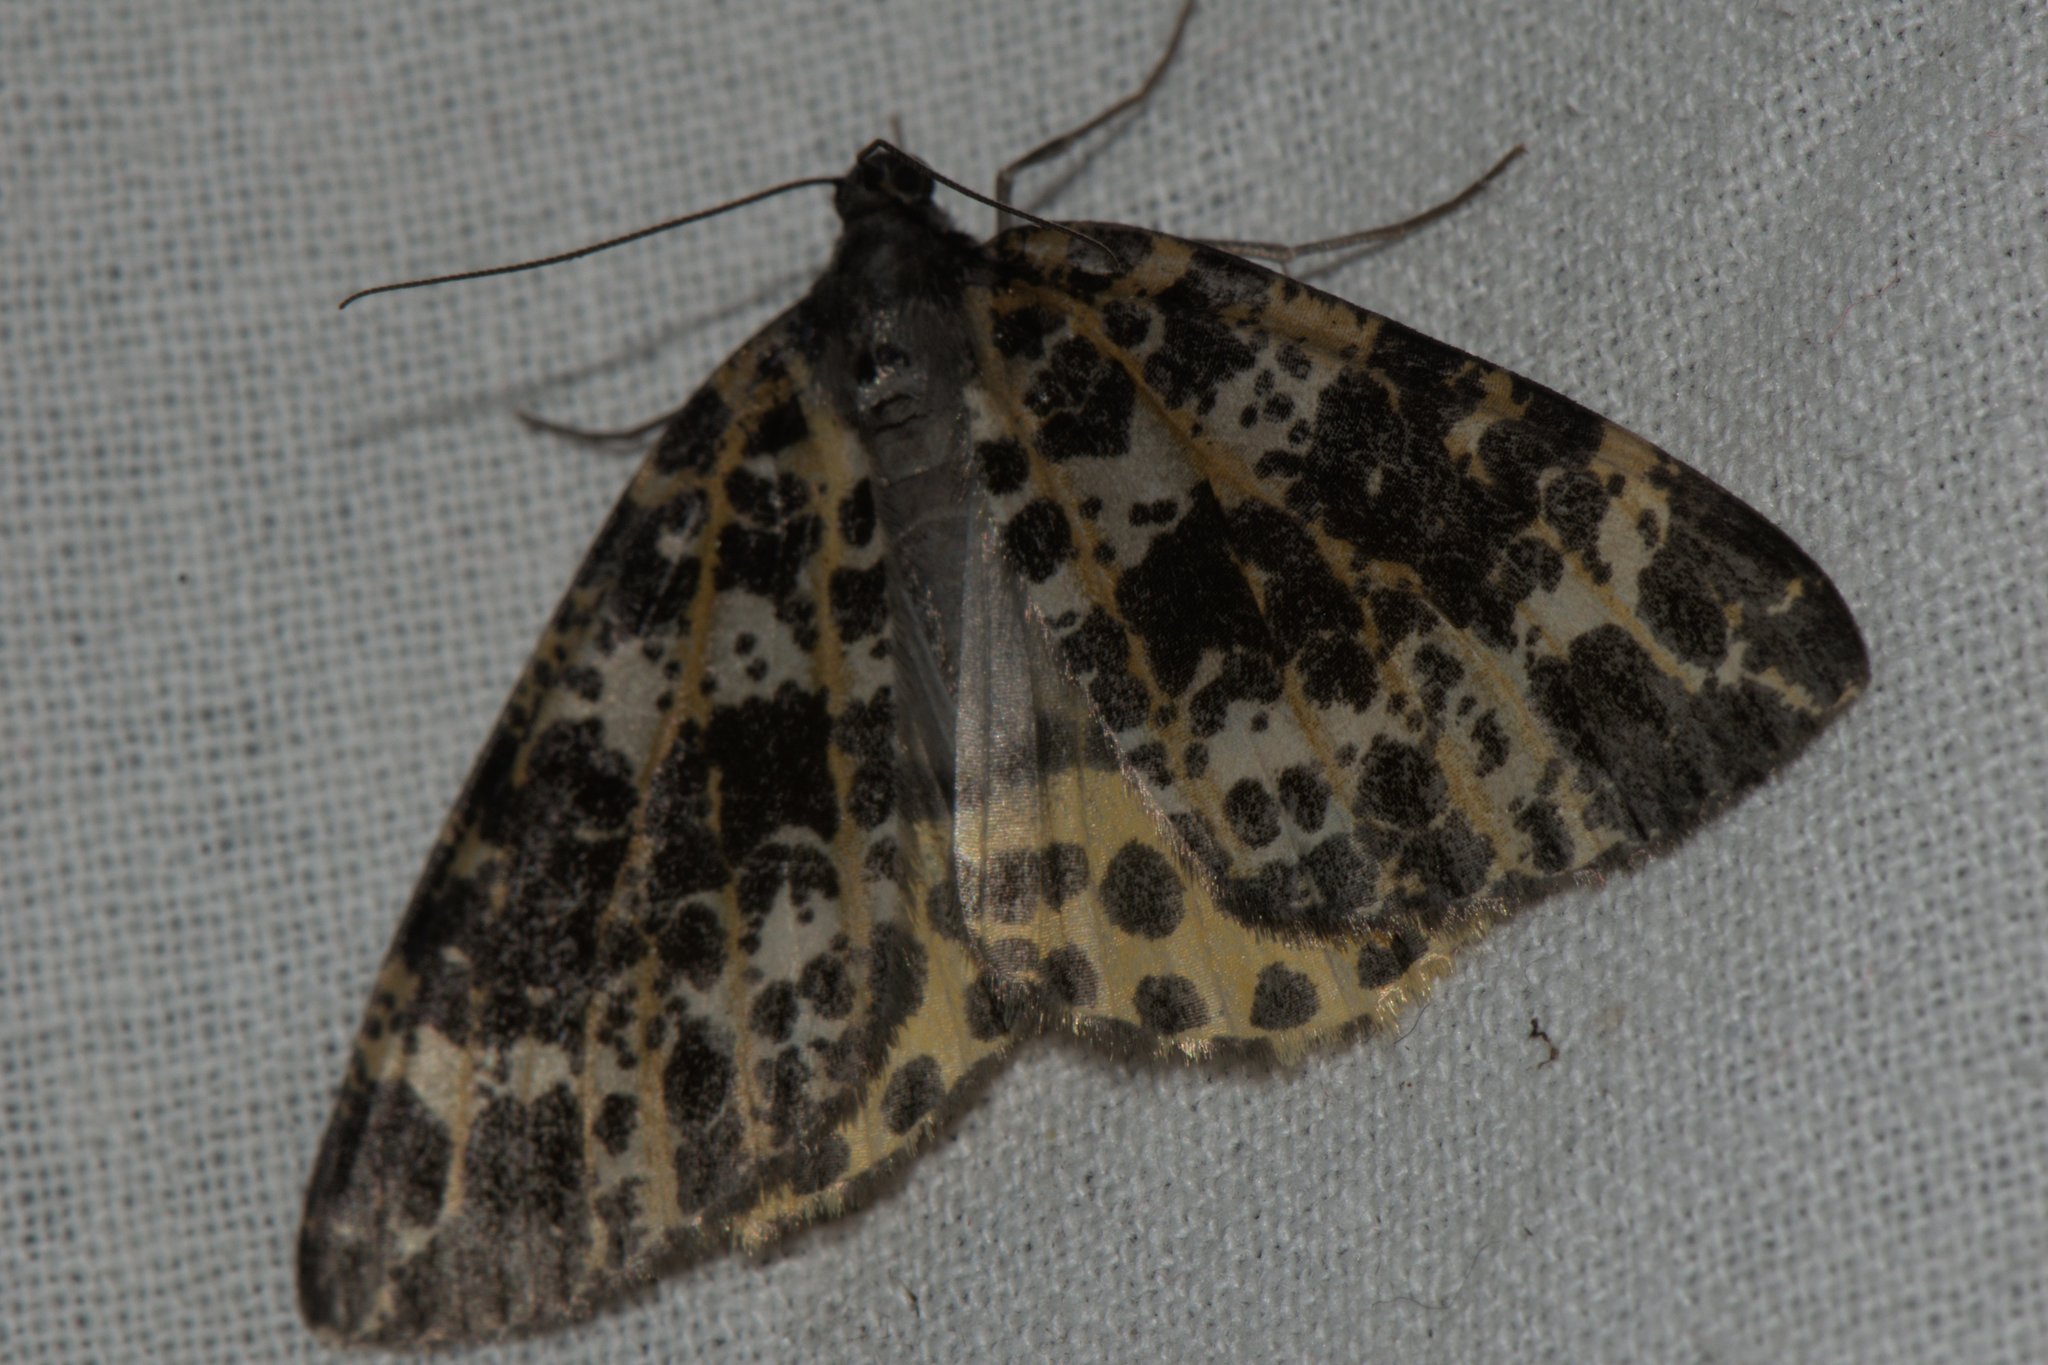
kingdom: Animalia
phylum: Arthropoda
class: Insecta
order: Lepidoptera
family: Geometridae
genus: Arichanna
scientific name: Arichanna sparsa
